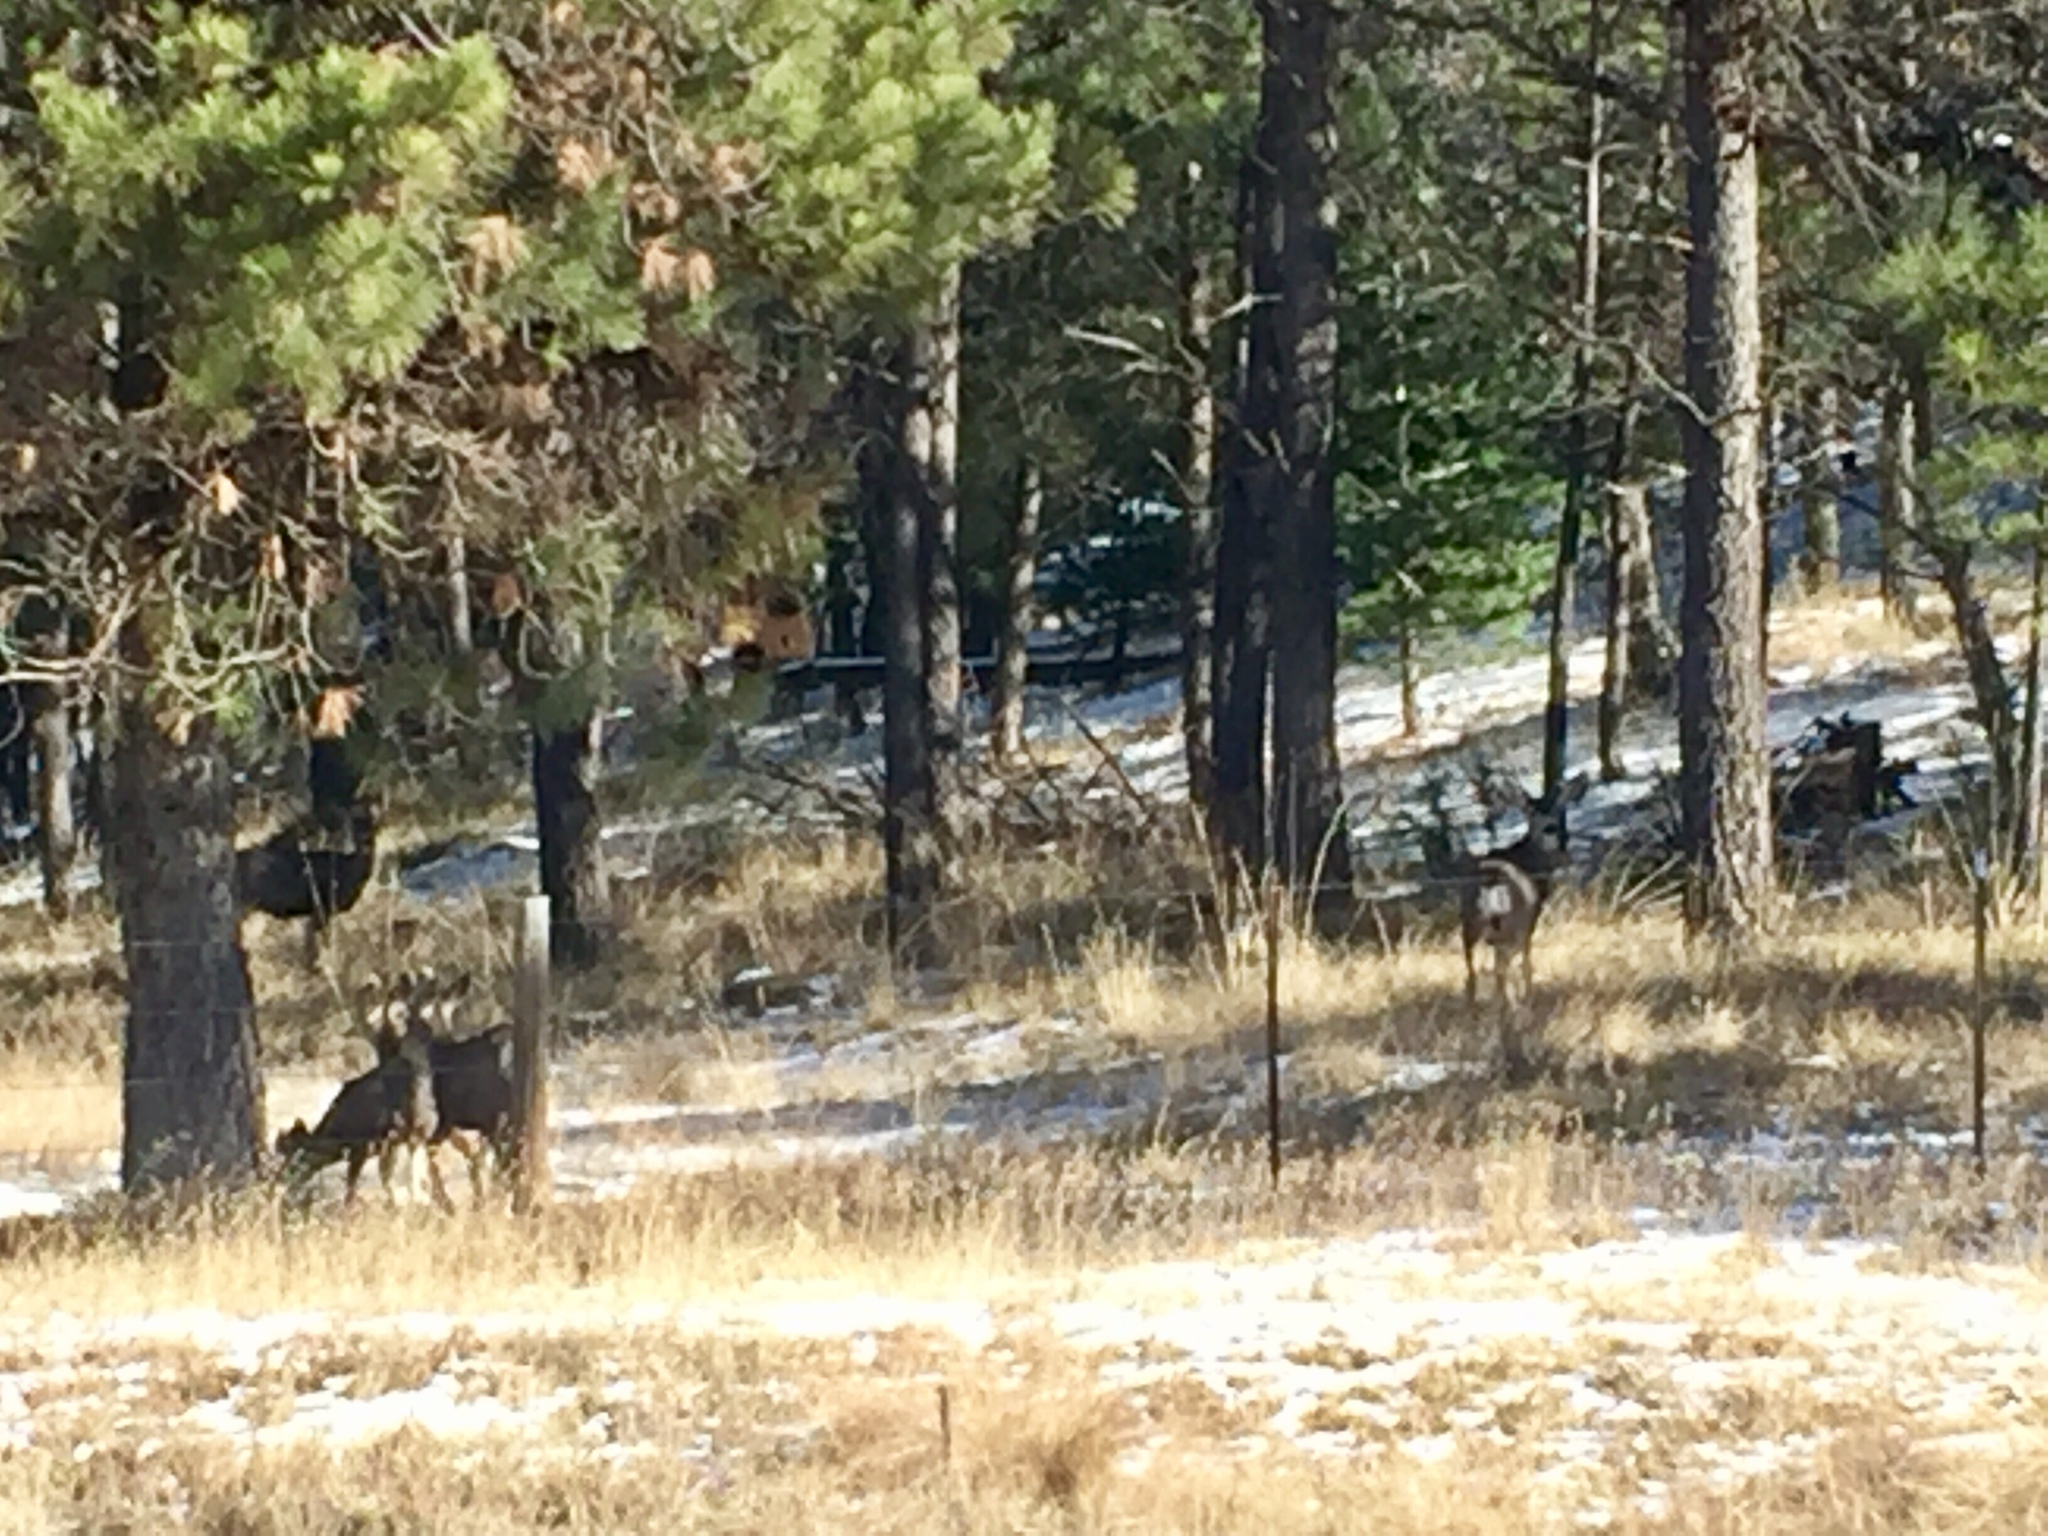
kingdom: Animalia
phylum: Chordata
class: Mammalia
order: Artiodactyla
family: Cervidae
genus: Odocoileus
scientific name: Odocoileus hemionus
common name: Mule deer
